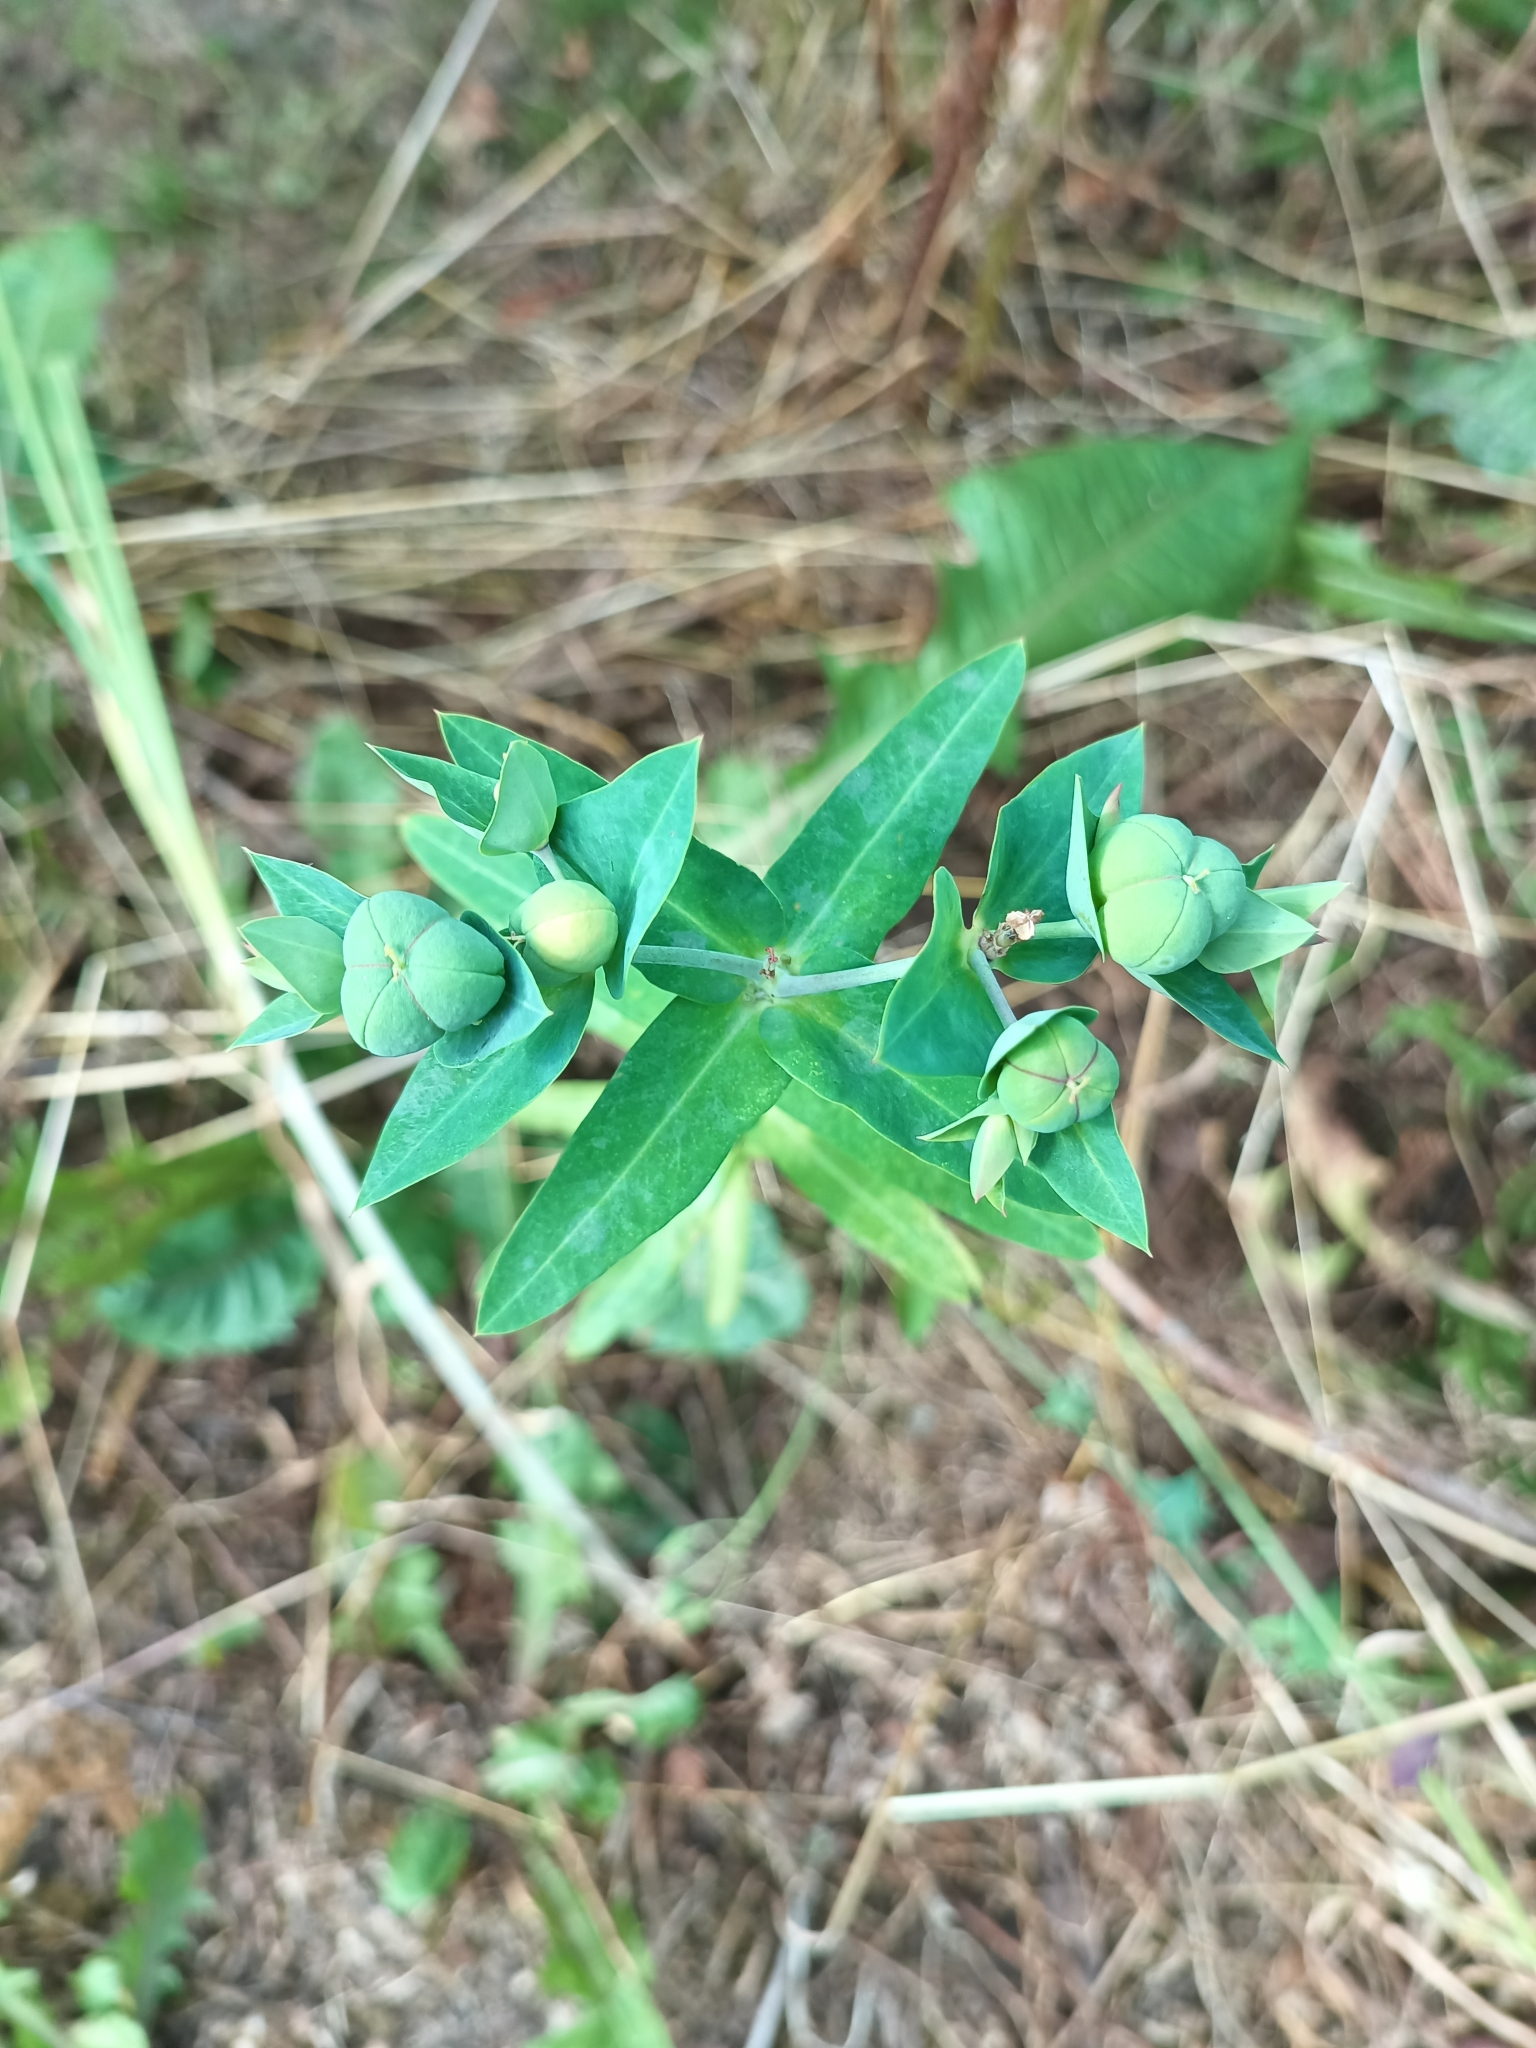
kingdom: Plantae
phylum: Tracheophyta
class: Magnoliopsida
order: Malpighiales
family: Euphorbiaceae
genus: Euphorbia
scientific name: Euphorbia lathyris
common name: Caper spurge
